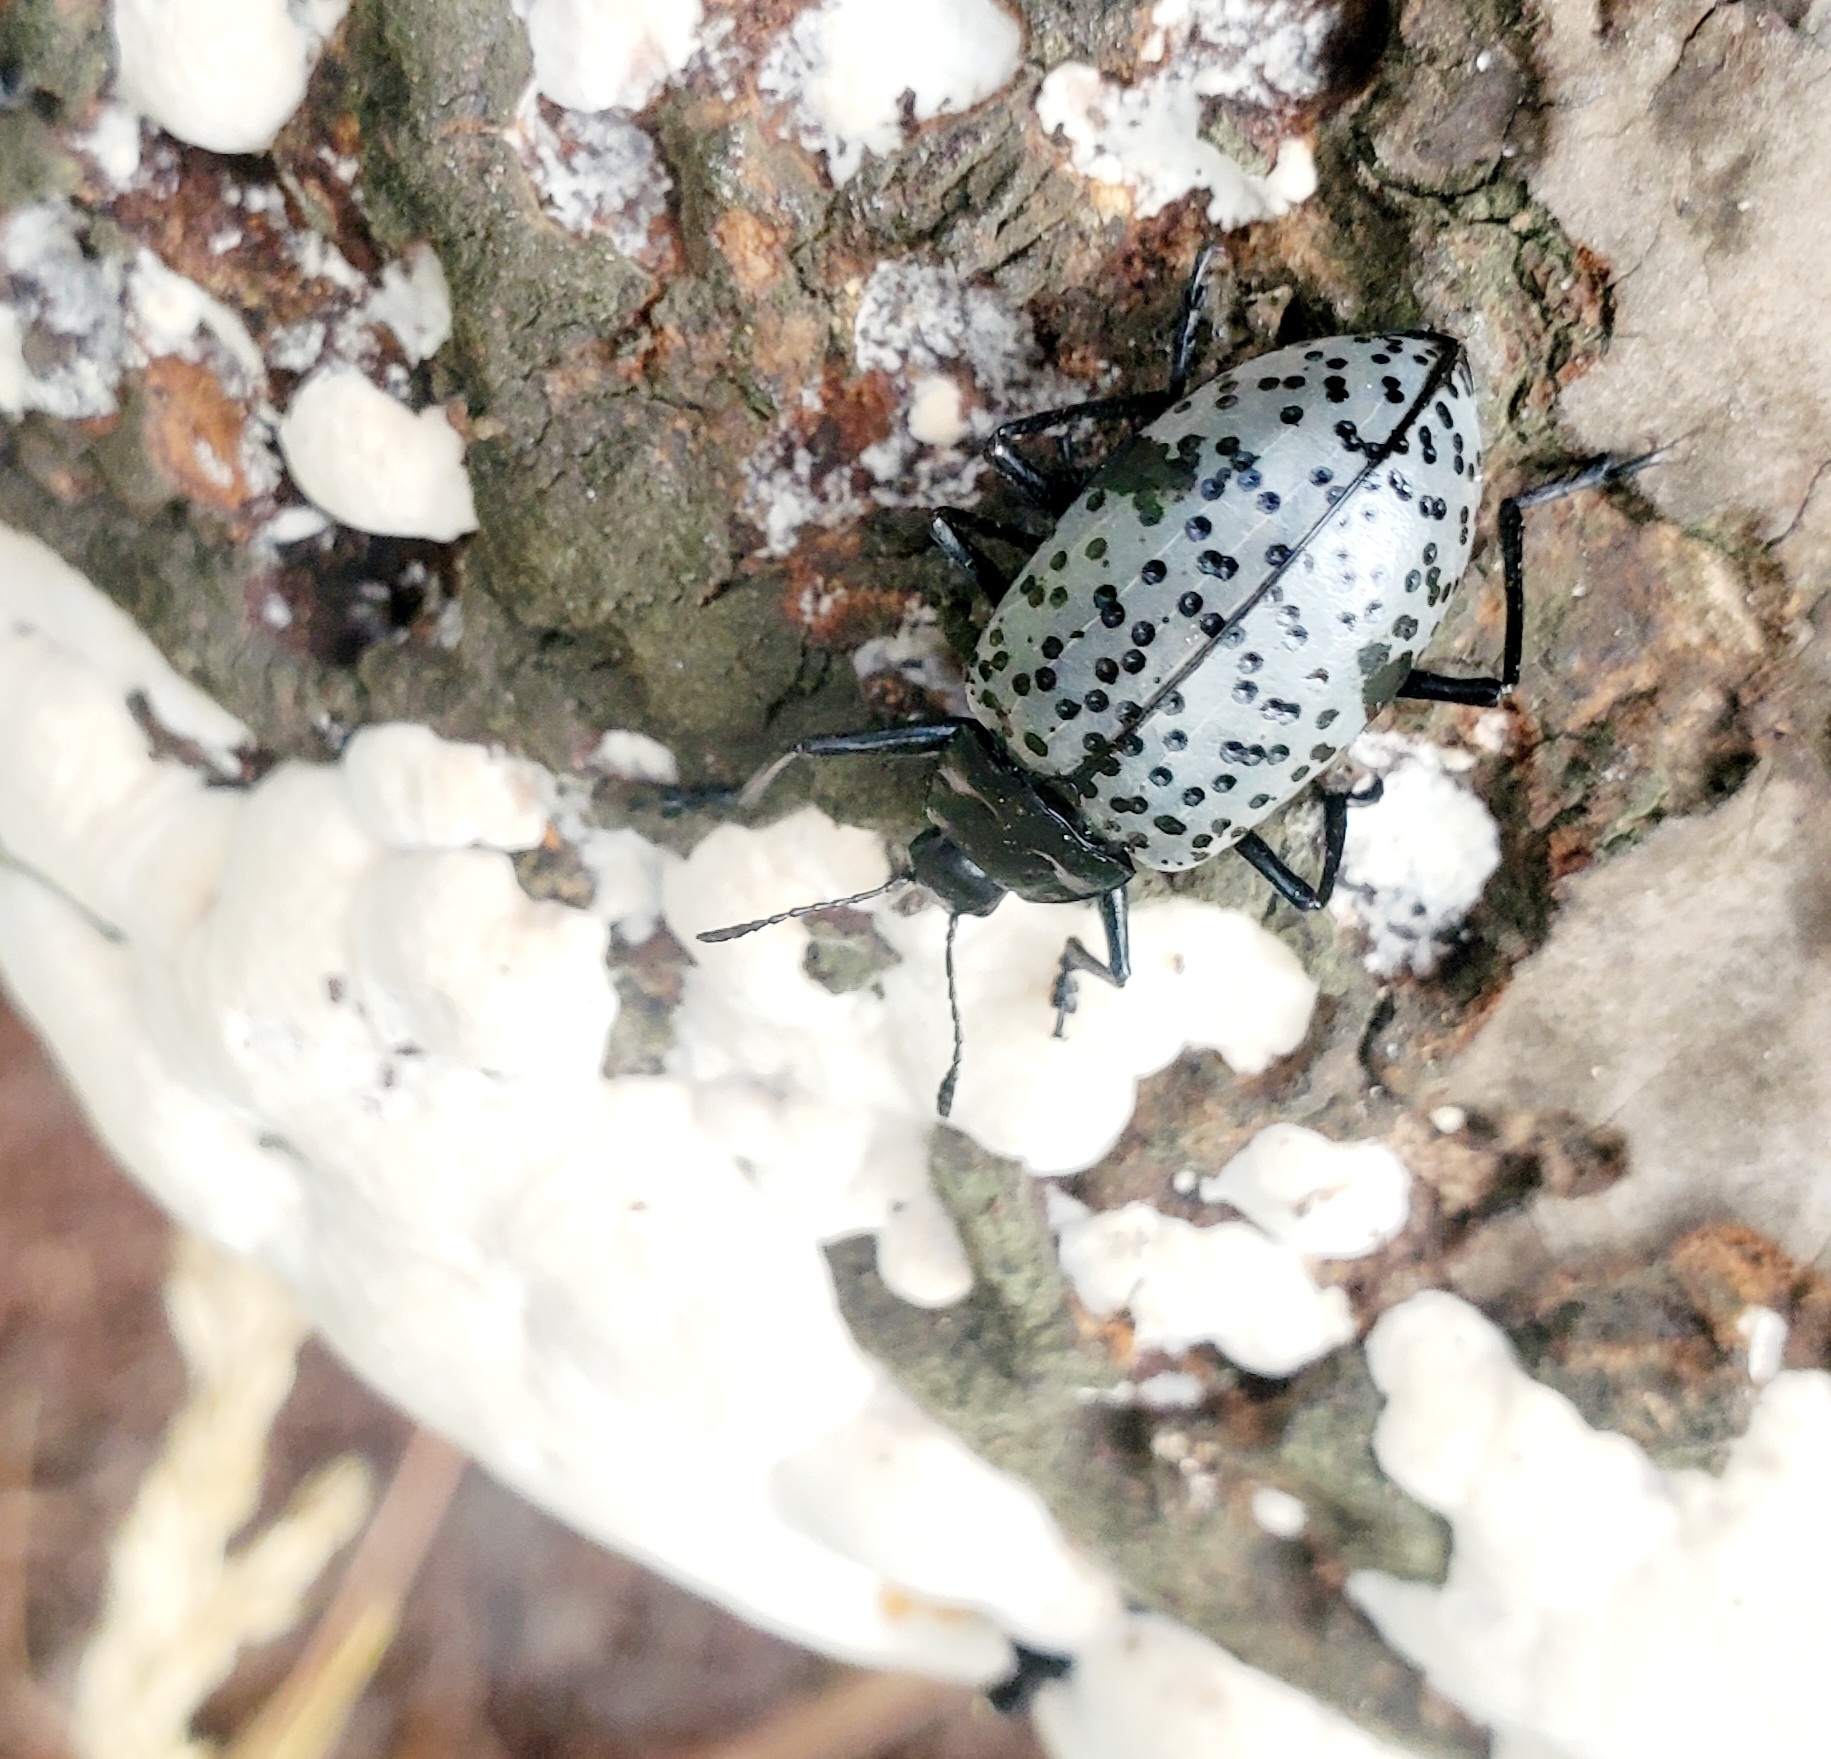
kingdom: Animalia
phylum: Arthropoda
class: Insecta
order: Coleoptera
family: Erotylidae
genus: Gibbifer
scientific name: Gibbifer californicus
